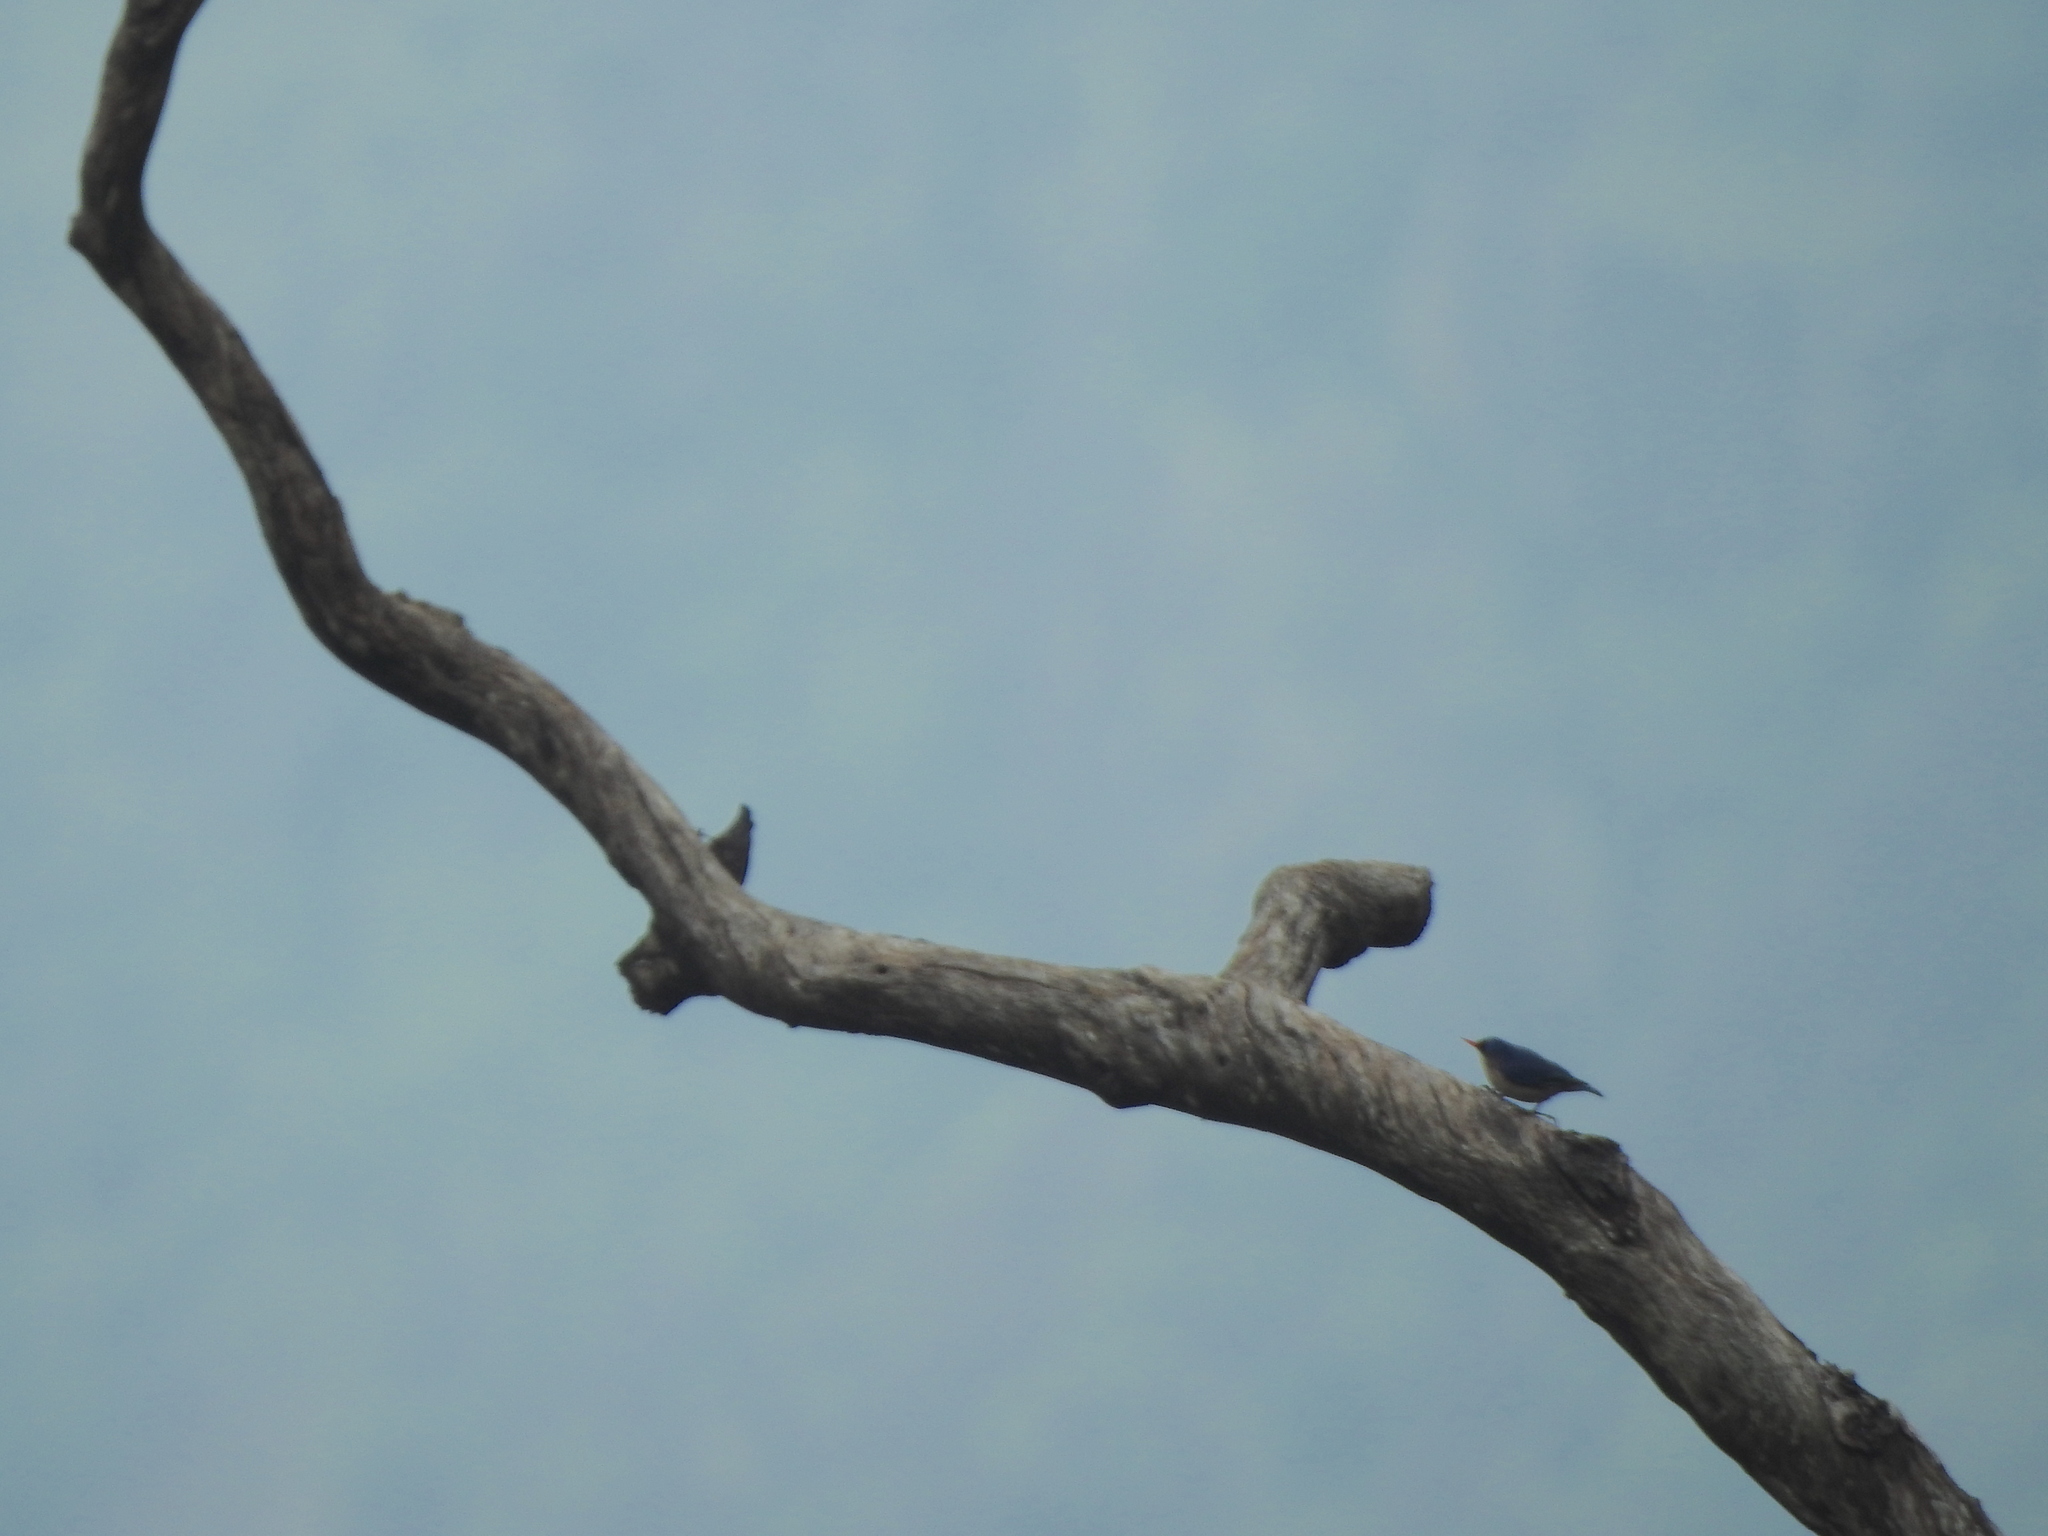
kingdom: Animalia
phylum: Chordata
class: Aves
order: Passeriformes
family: Sittidae
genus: Sitta
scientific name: Sitta frontalis
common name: Velvet-fronted nuthatch
